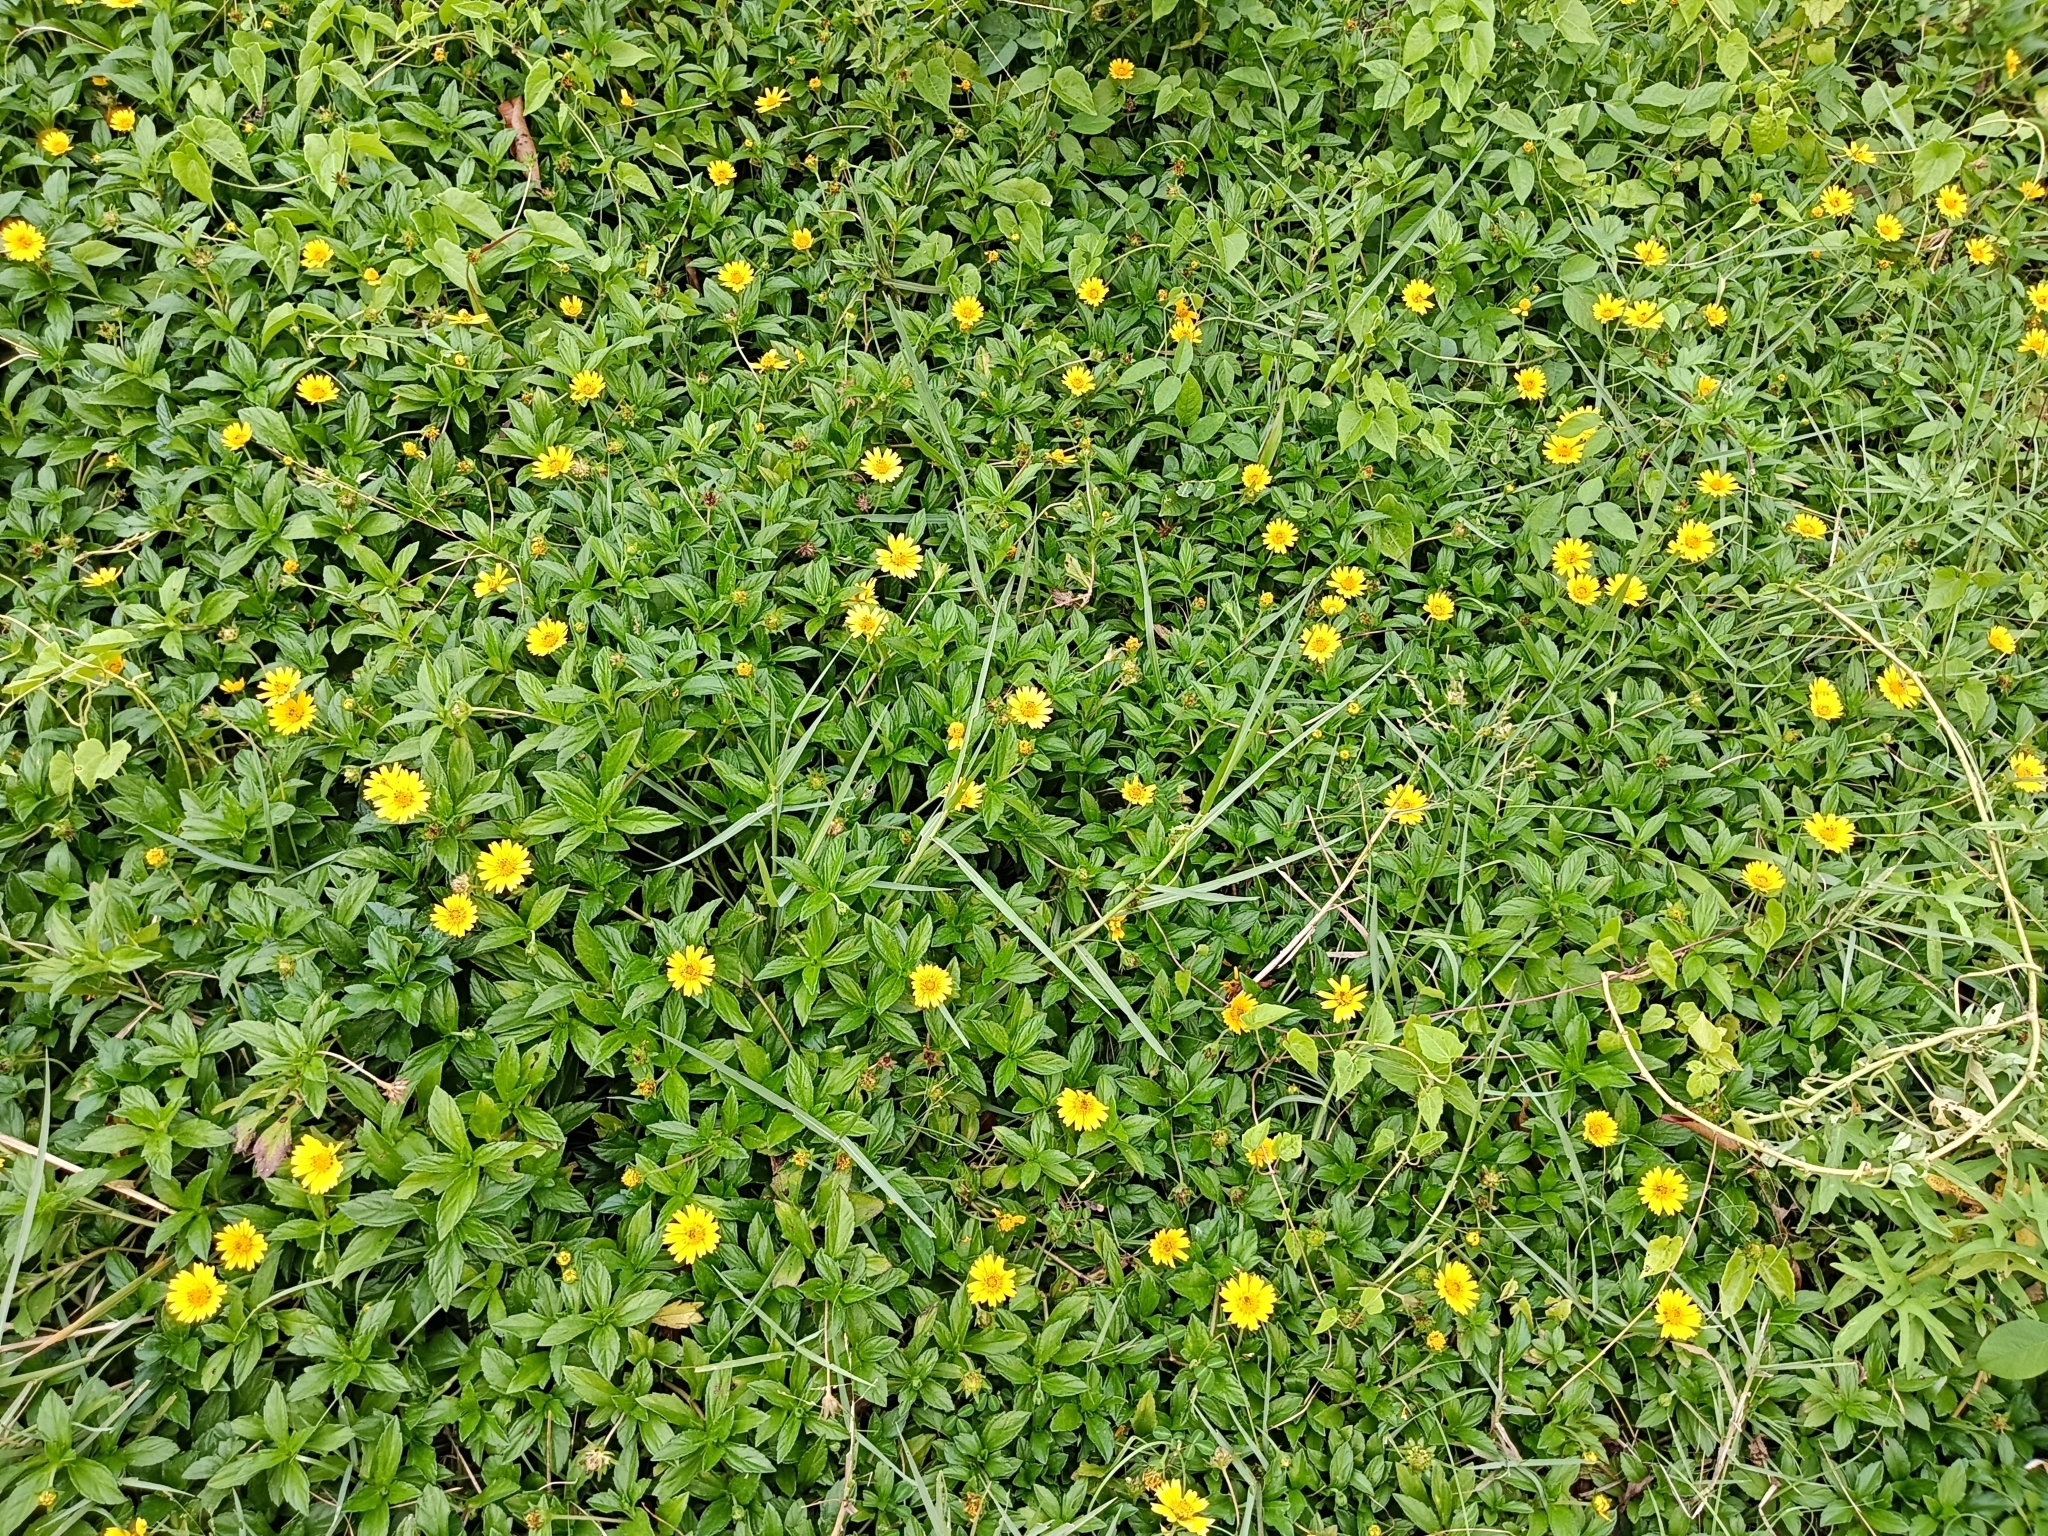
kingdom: Plantae
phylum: Tracheophyta
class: Magnoliopsida
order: Asterales
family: Asteraceae
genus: Sphagneticola
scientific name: Sphagneticola trilobata
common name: Bay biscayne creeping-oxeye
